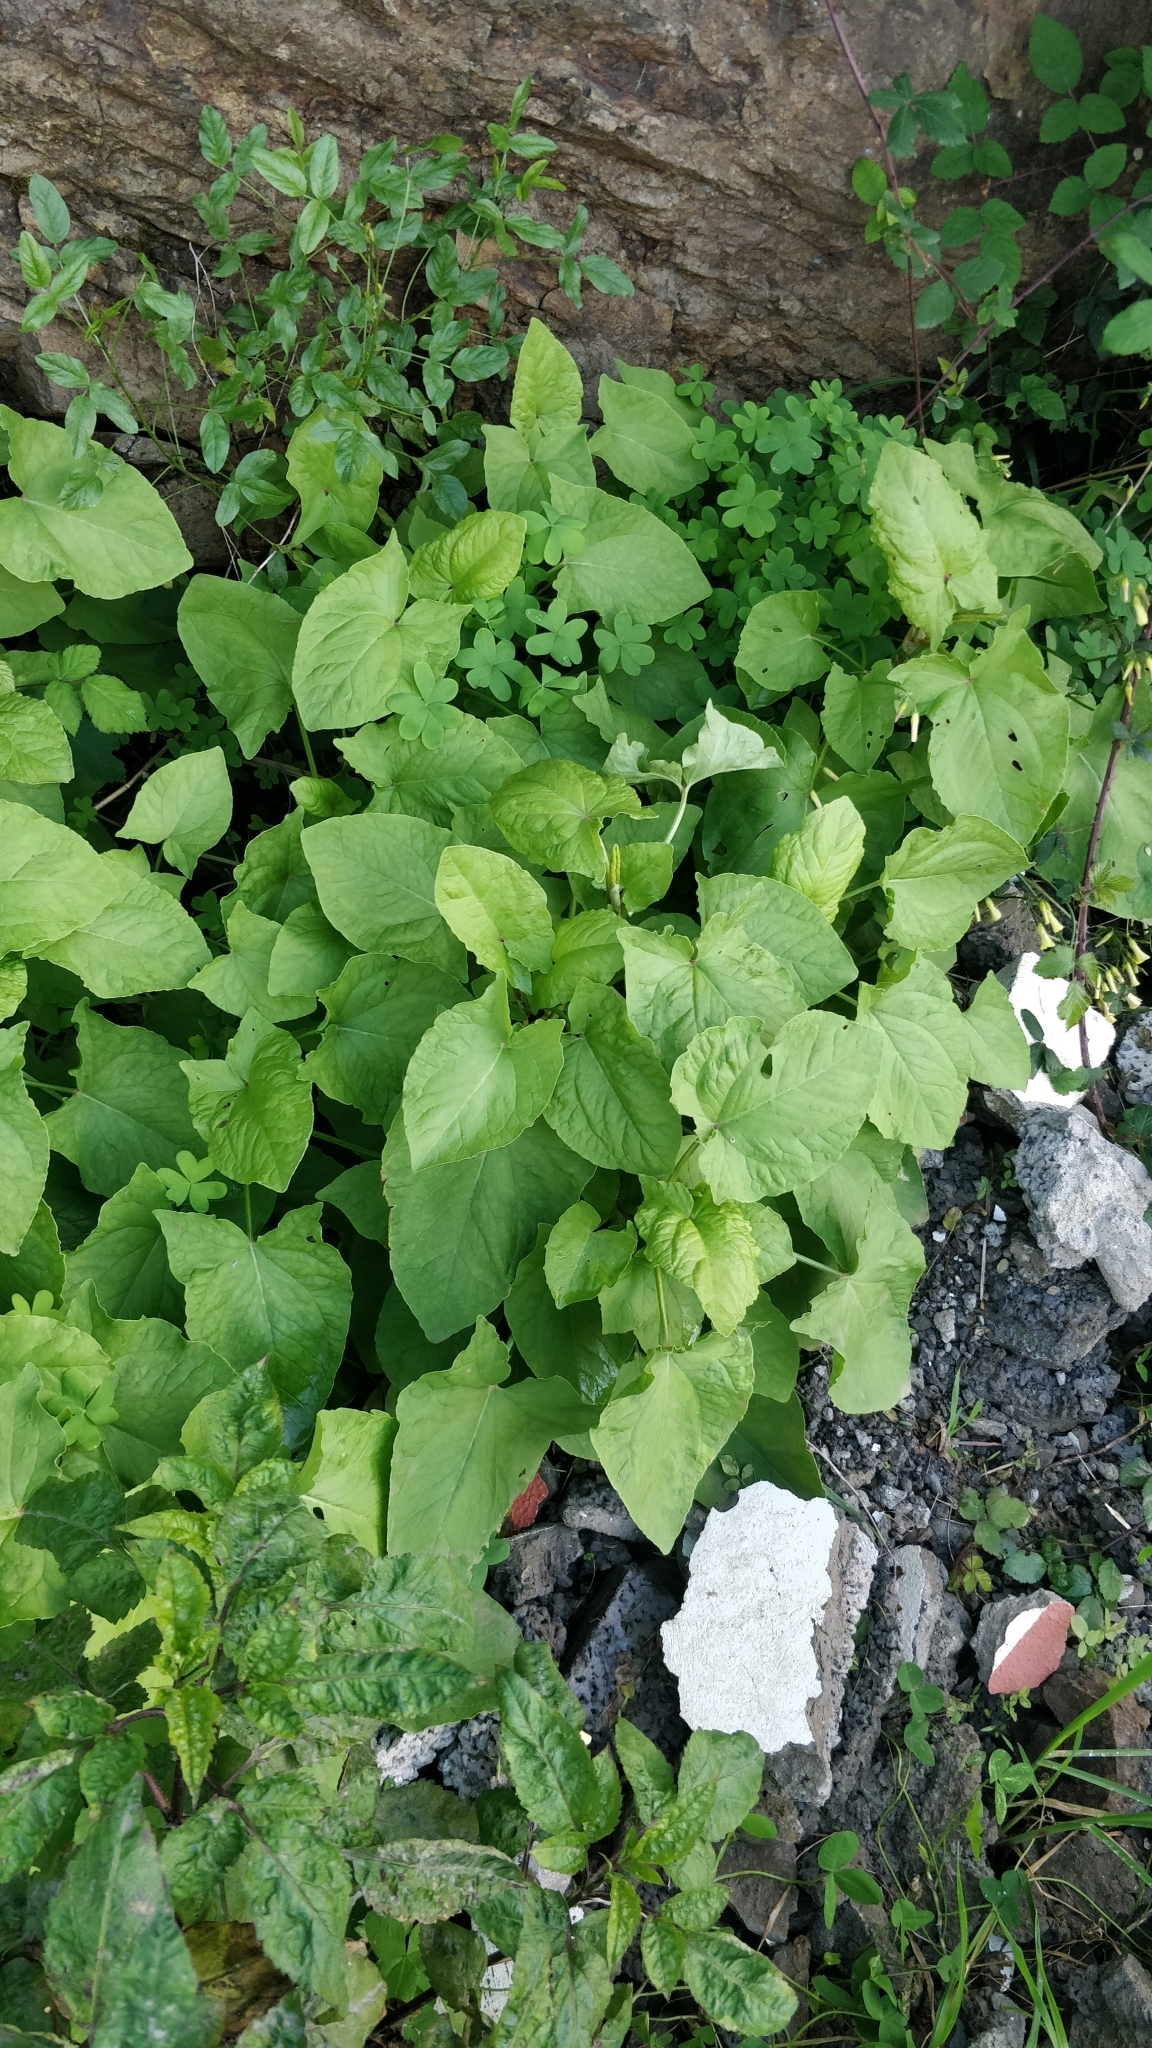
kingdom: Plantae
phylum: Tracheophyta
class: Magnoliopsida
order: Caryophyllales
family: Polygonaceae
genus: Rumex
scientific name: Rumex maderensis
